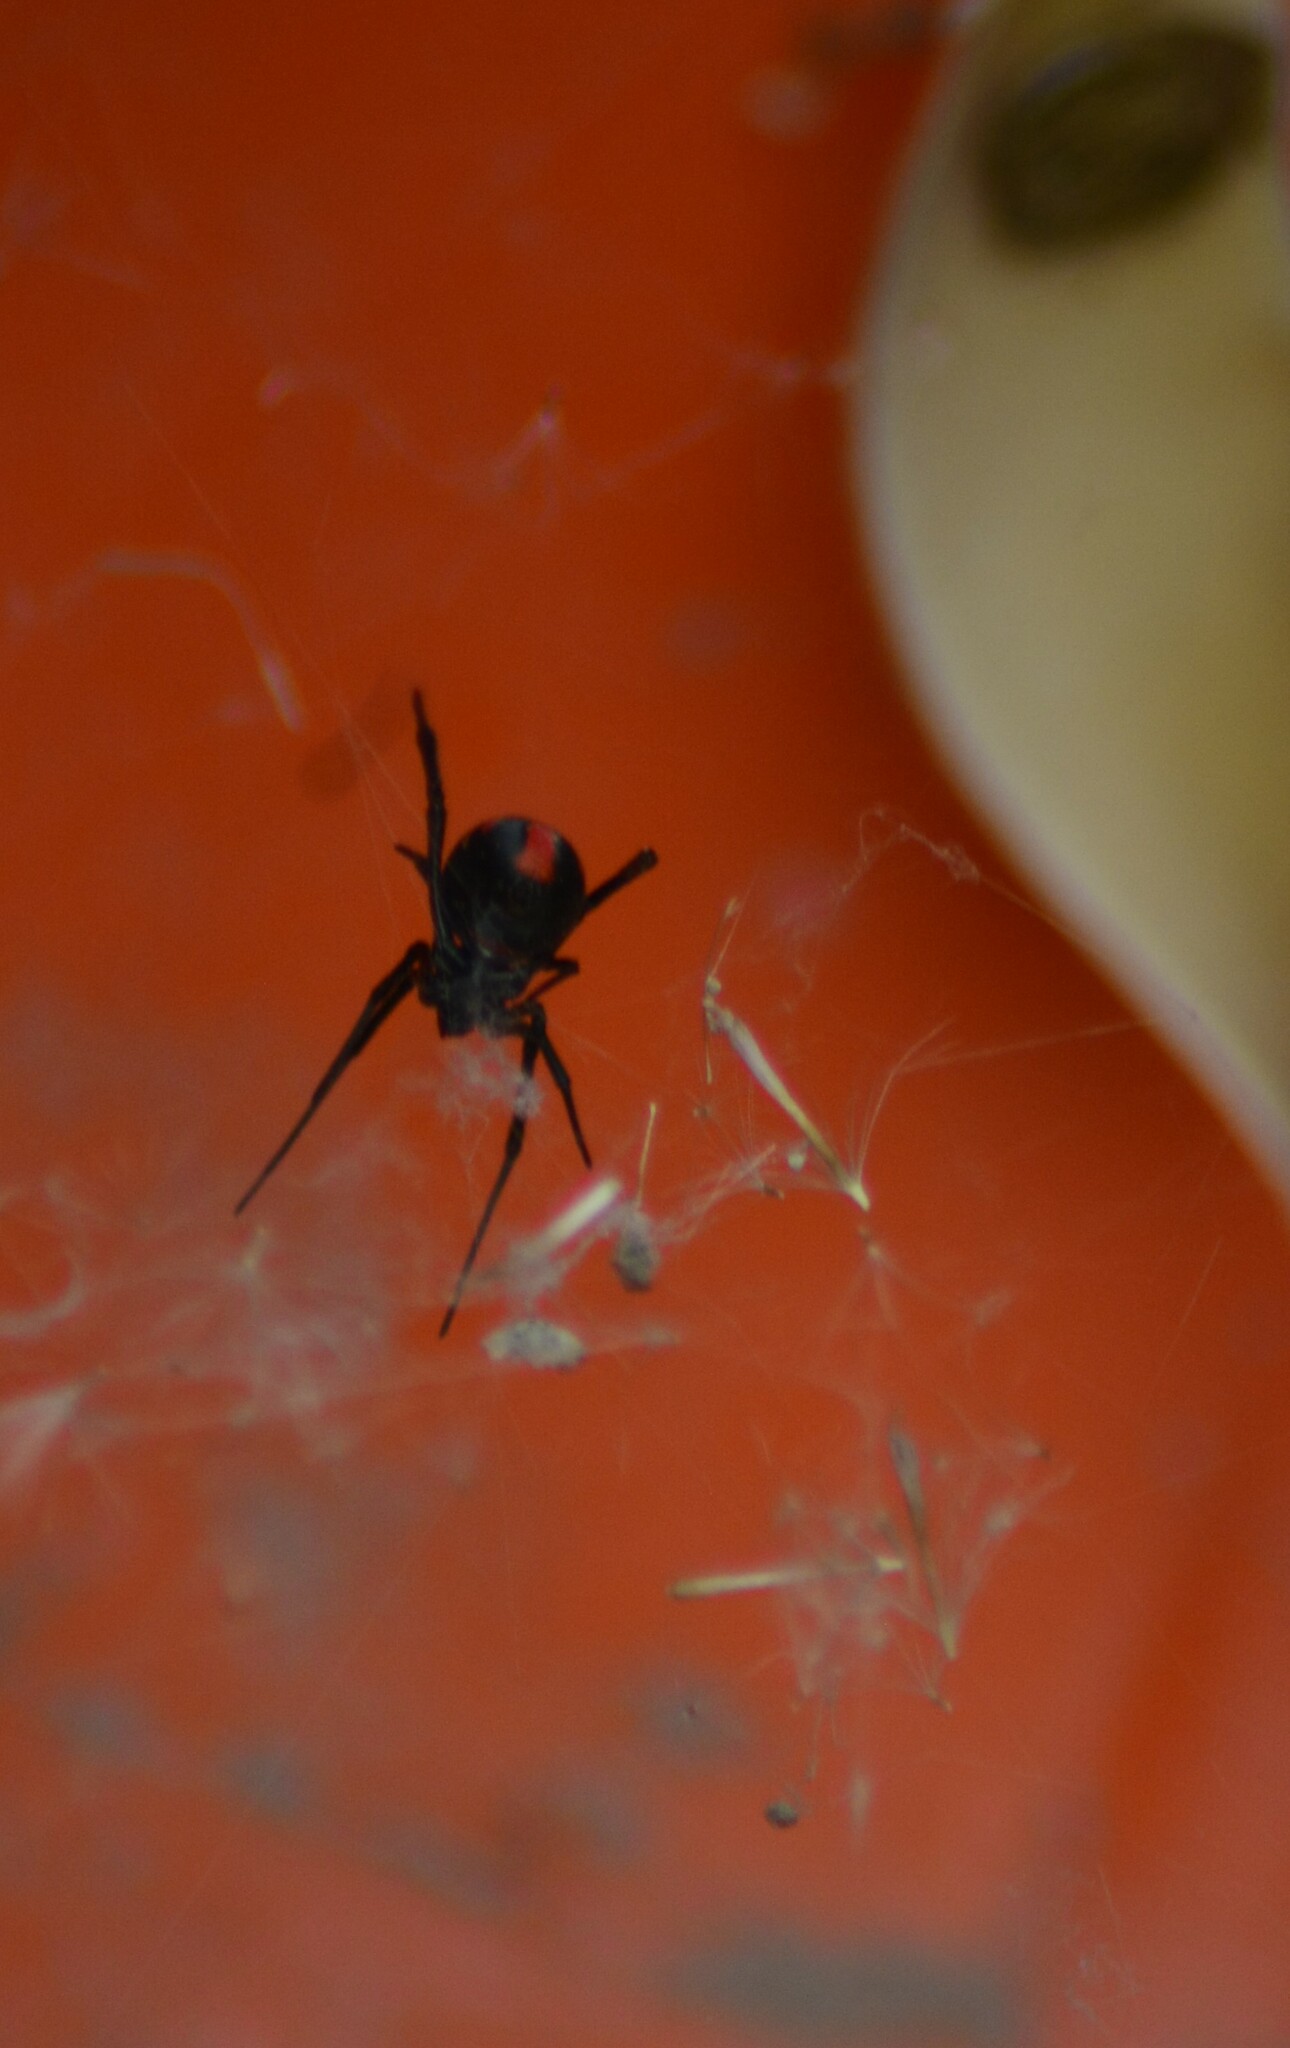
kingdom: Animalia
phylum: Arthropoda
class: Arachnida
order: Araneae
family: Theridiidae
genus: Latrodectus
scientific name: Latrodectus mirabilis
